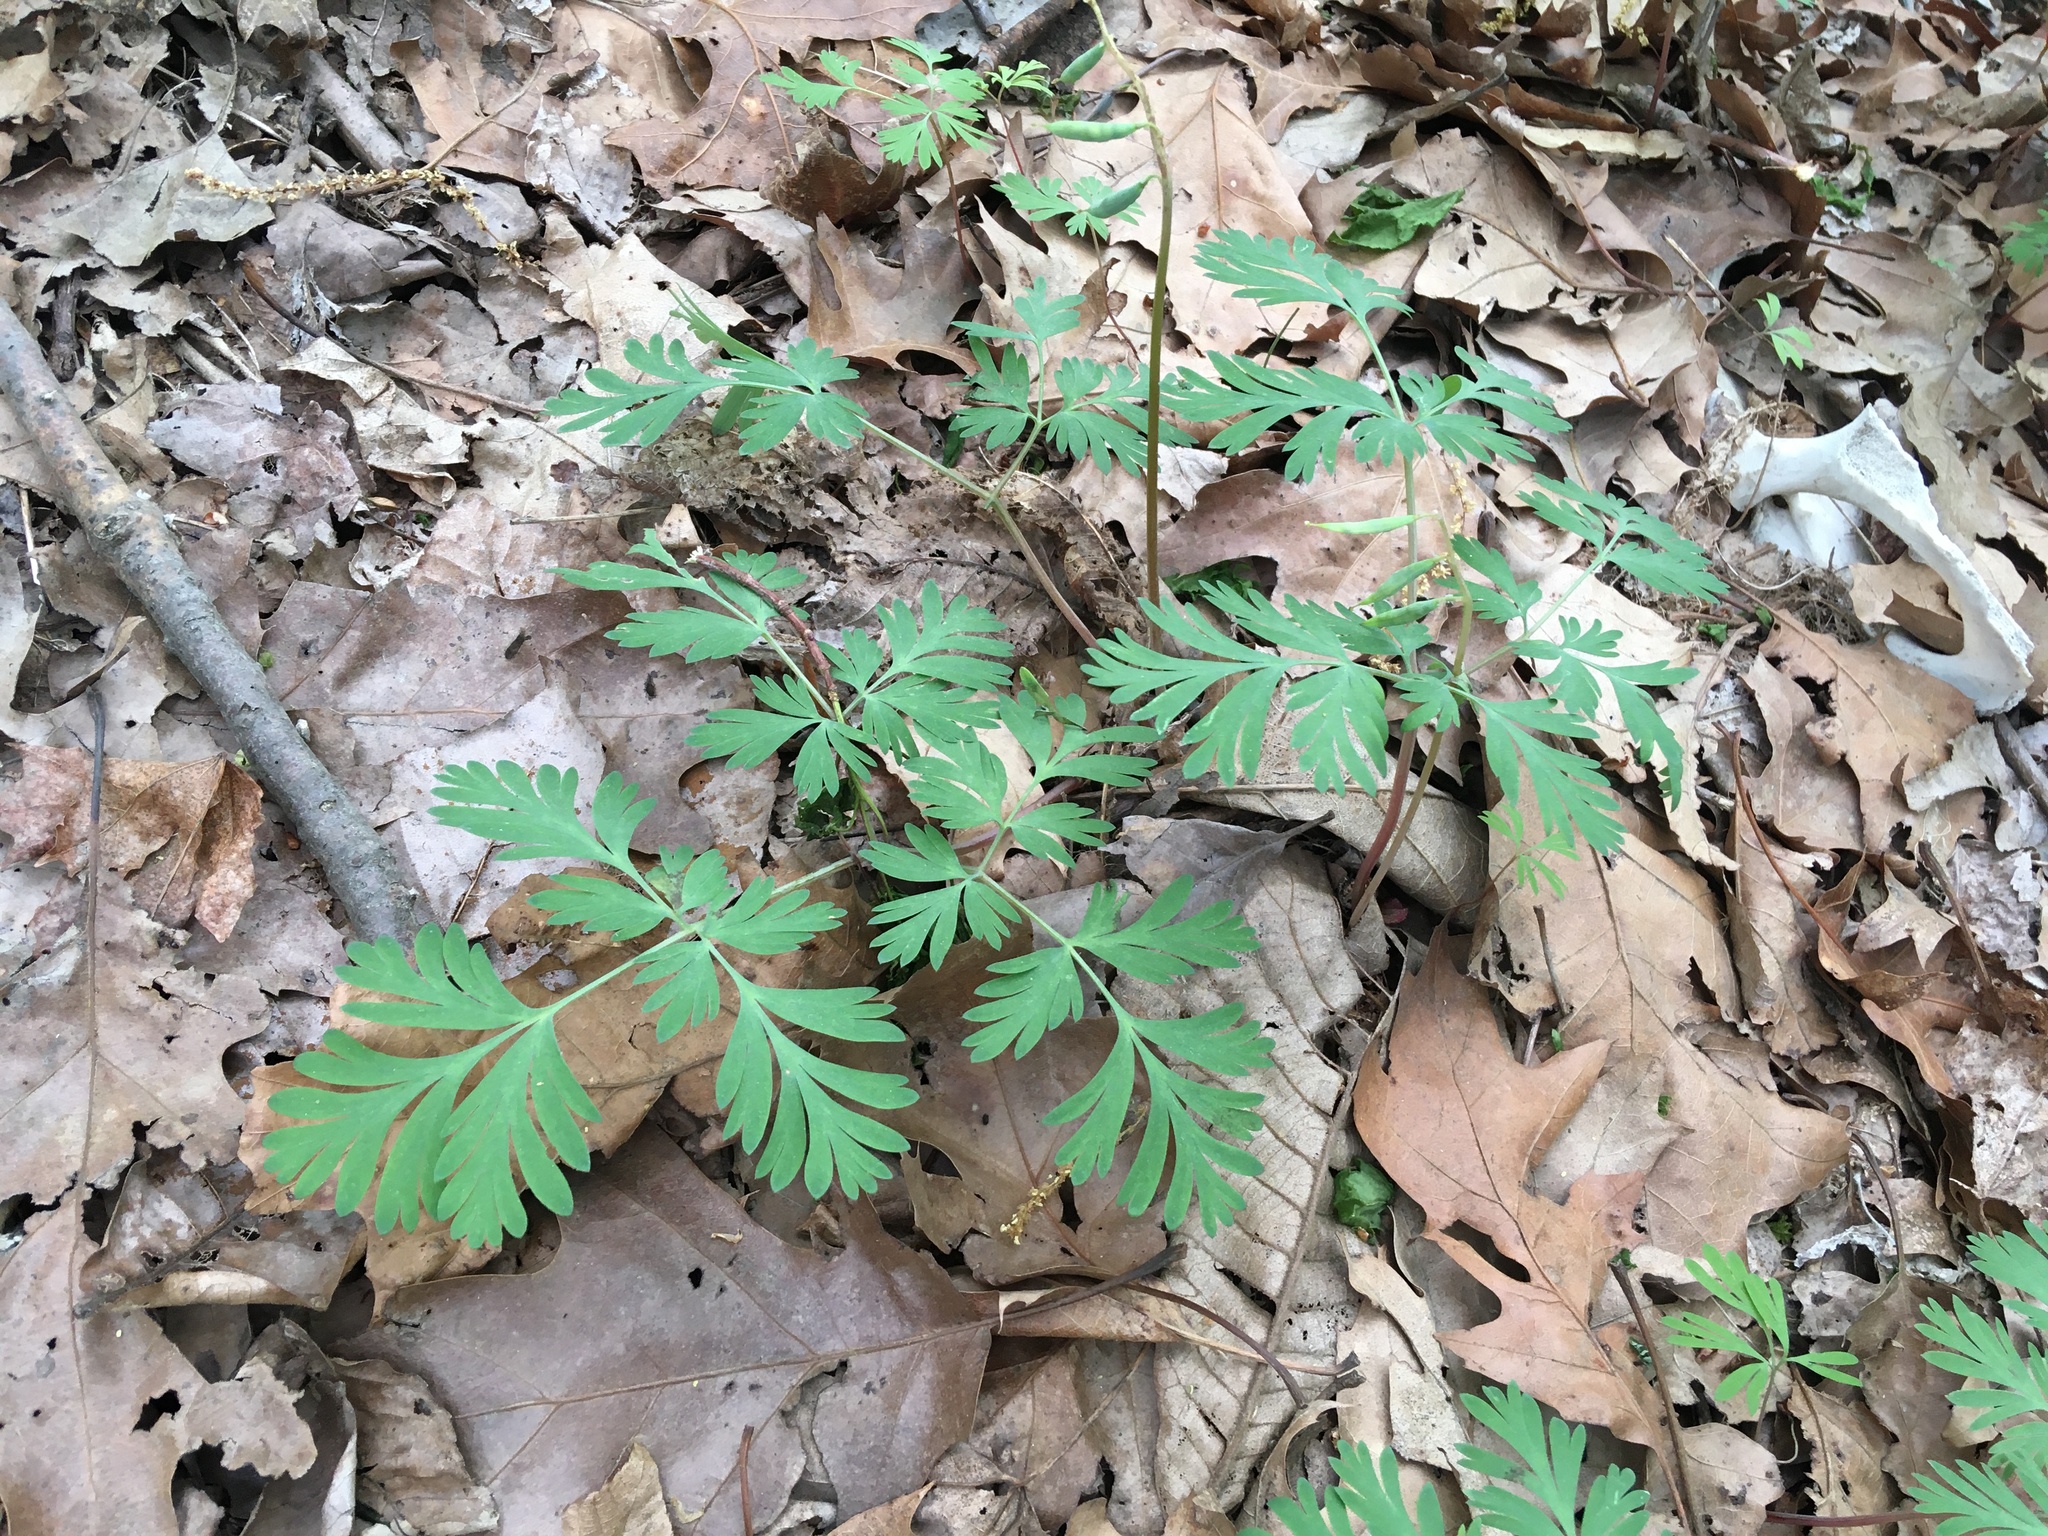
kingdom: Plantae
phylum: Tracheophyta
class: Magnoliopsida
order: Ranunculales
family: Papaveraceae
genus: Dicentra
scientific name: Dicentra cucullaria
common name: Dutchman's breeches
